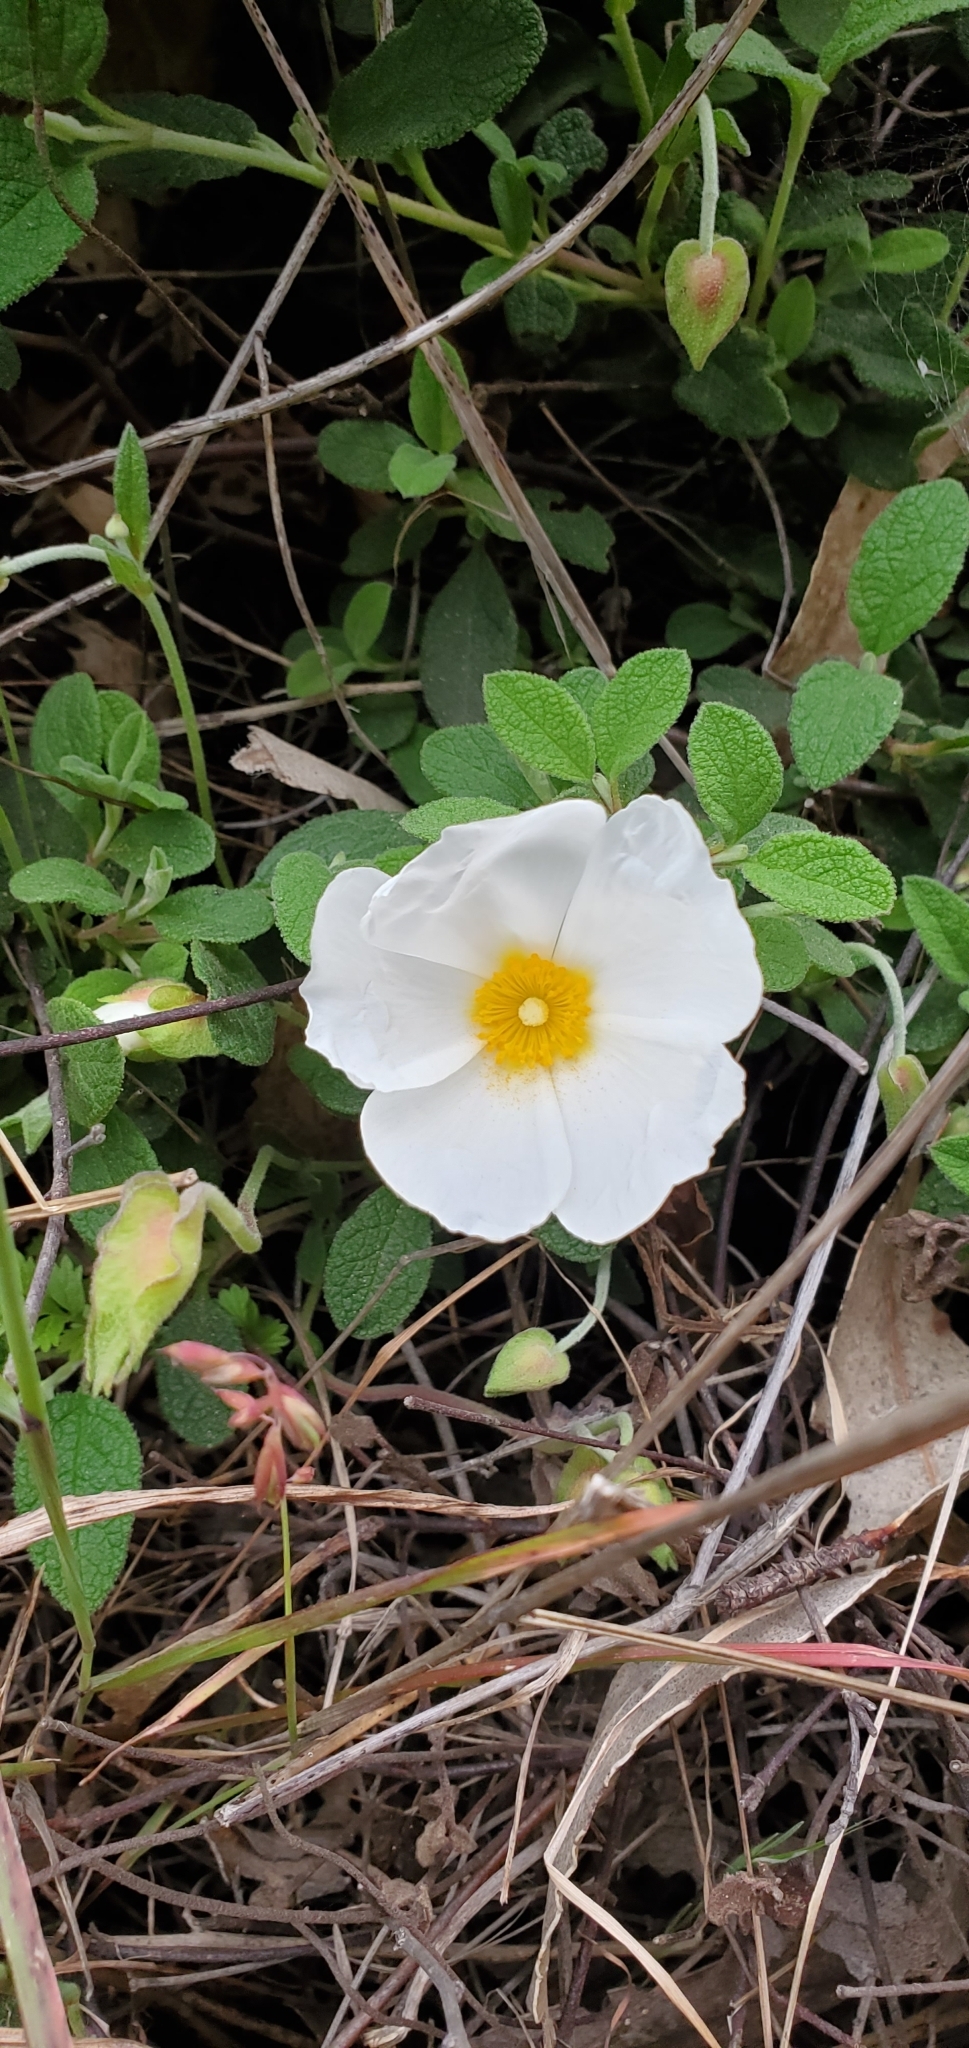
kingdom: Plantae
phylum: Tracheophyta
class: Magnoliopsida
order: Malvales
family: Cistaceae
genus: Cistus
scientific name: Cistus salviifolius
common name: Salvia cistus
